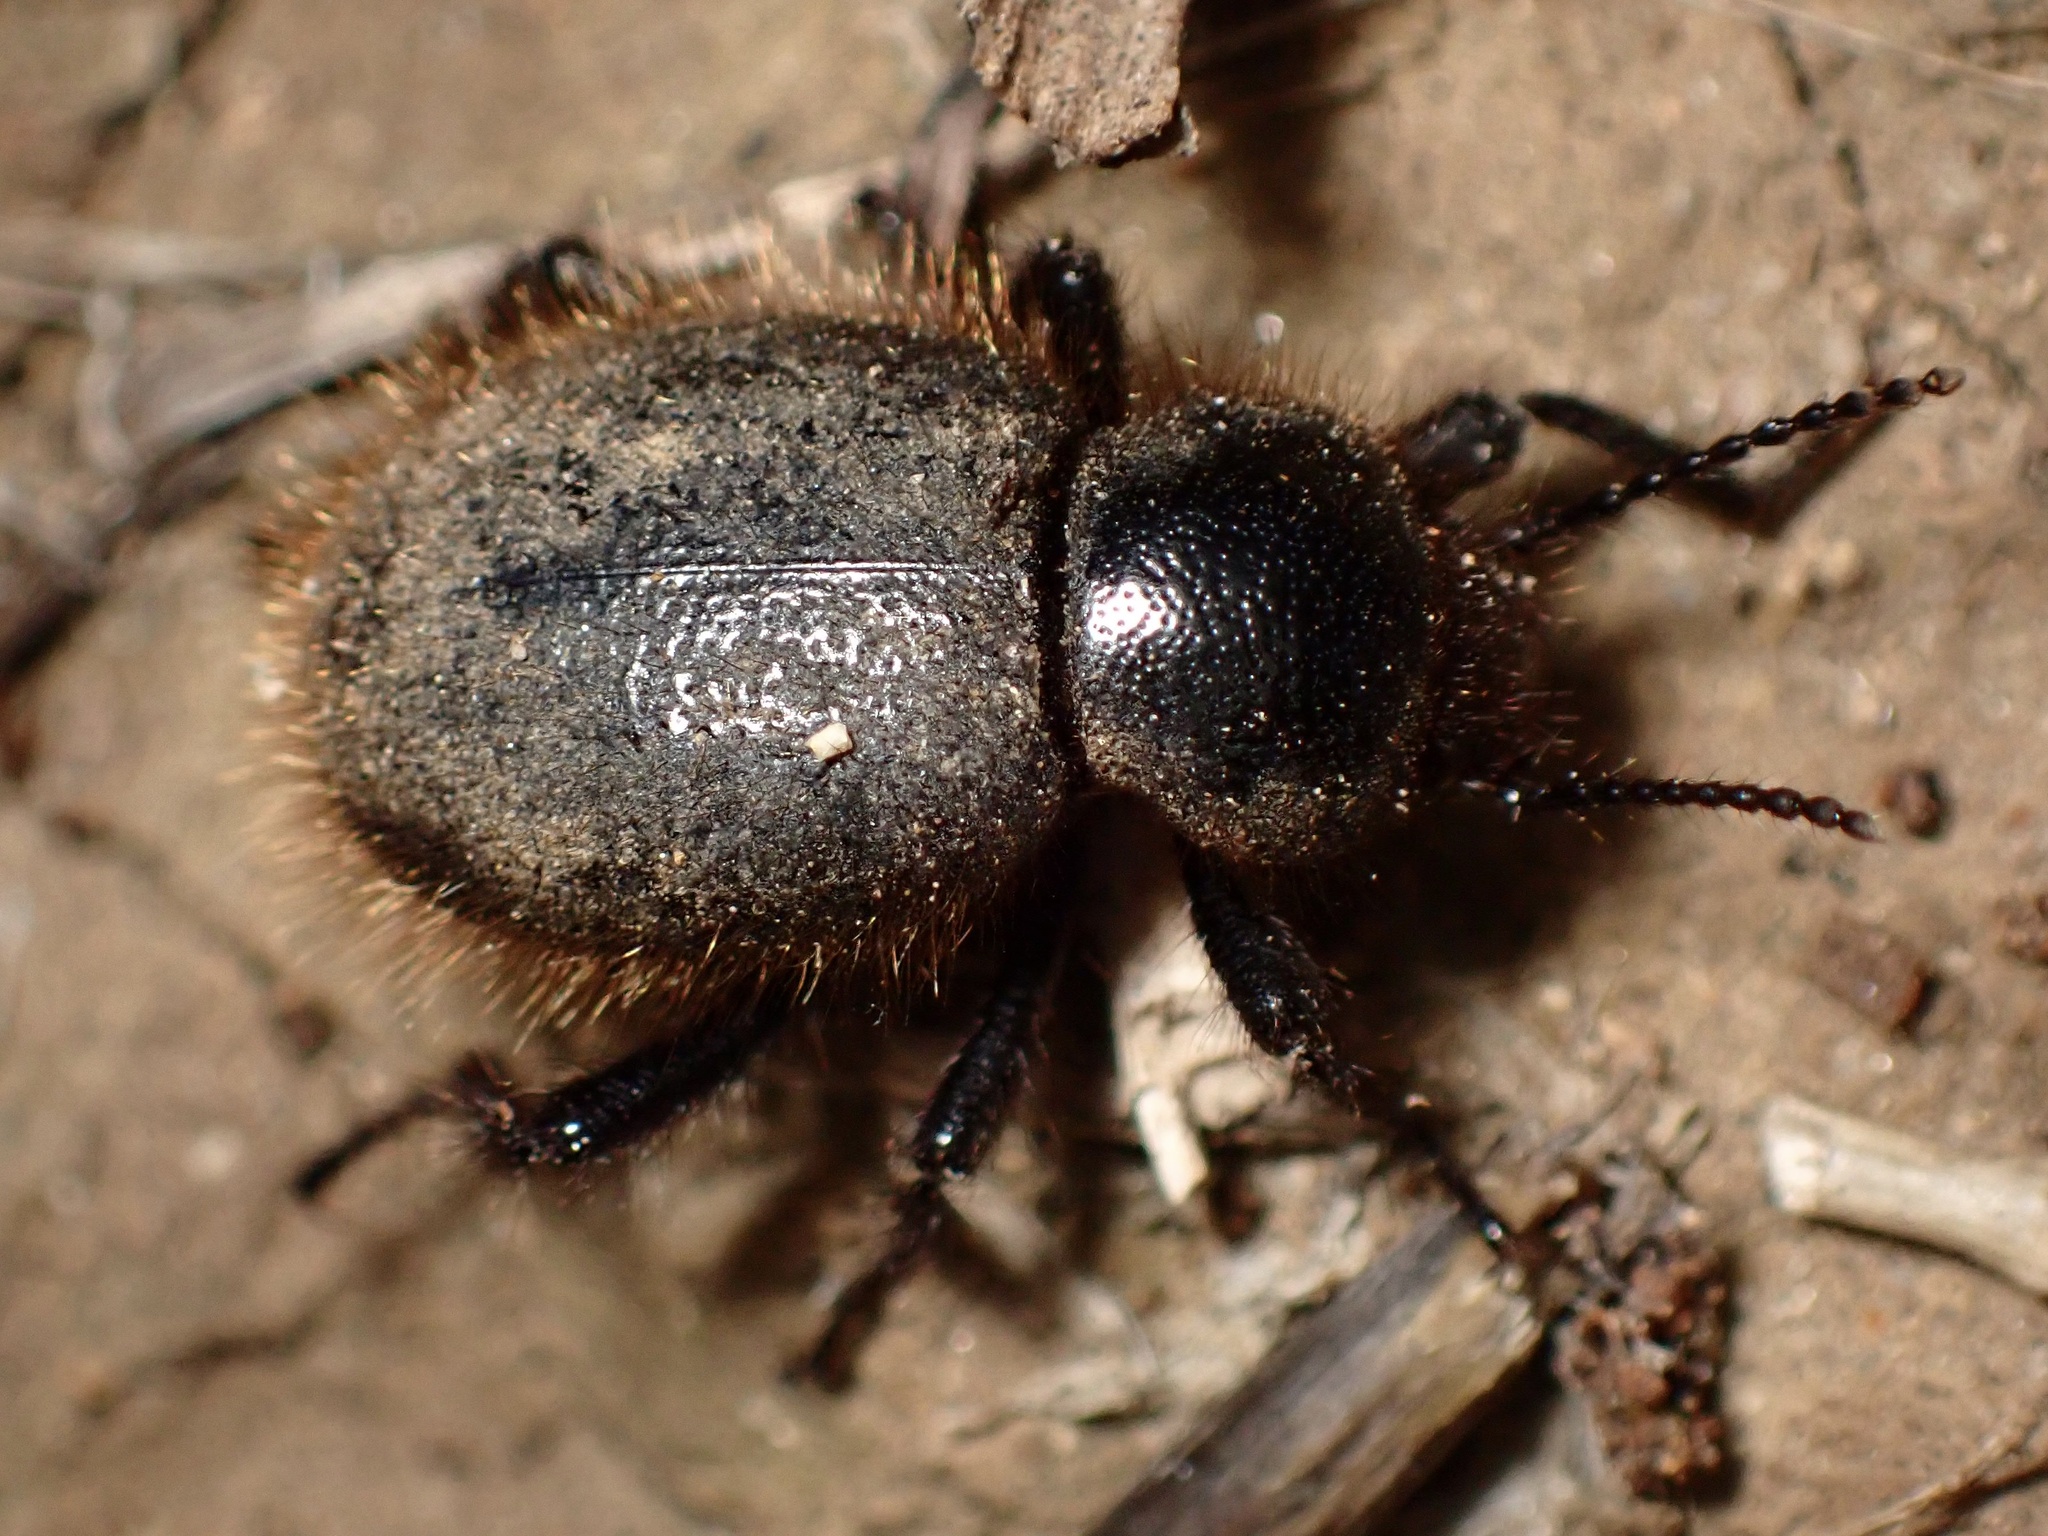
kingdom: Animalia
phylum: Arthropoda
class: Insecta
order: Coleoptera
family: Tenebrionidae
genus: Eleodes
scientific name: Eleodes osculans
